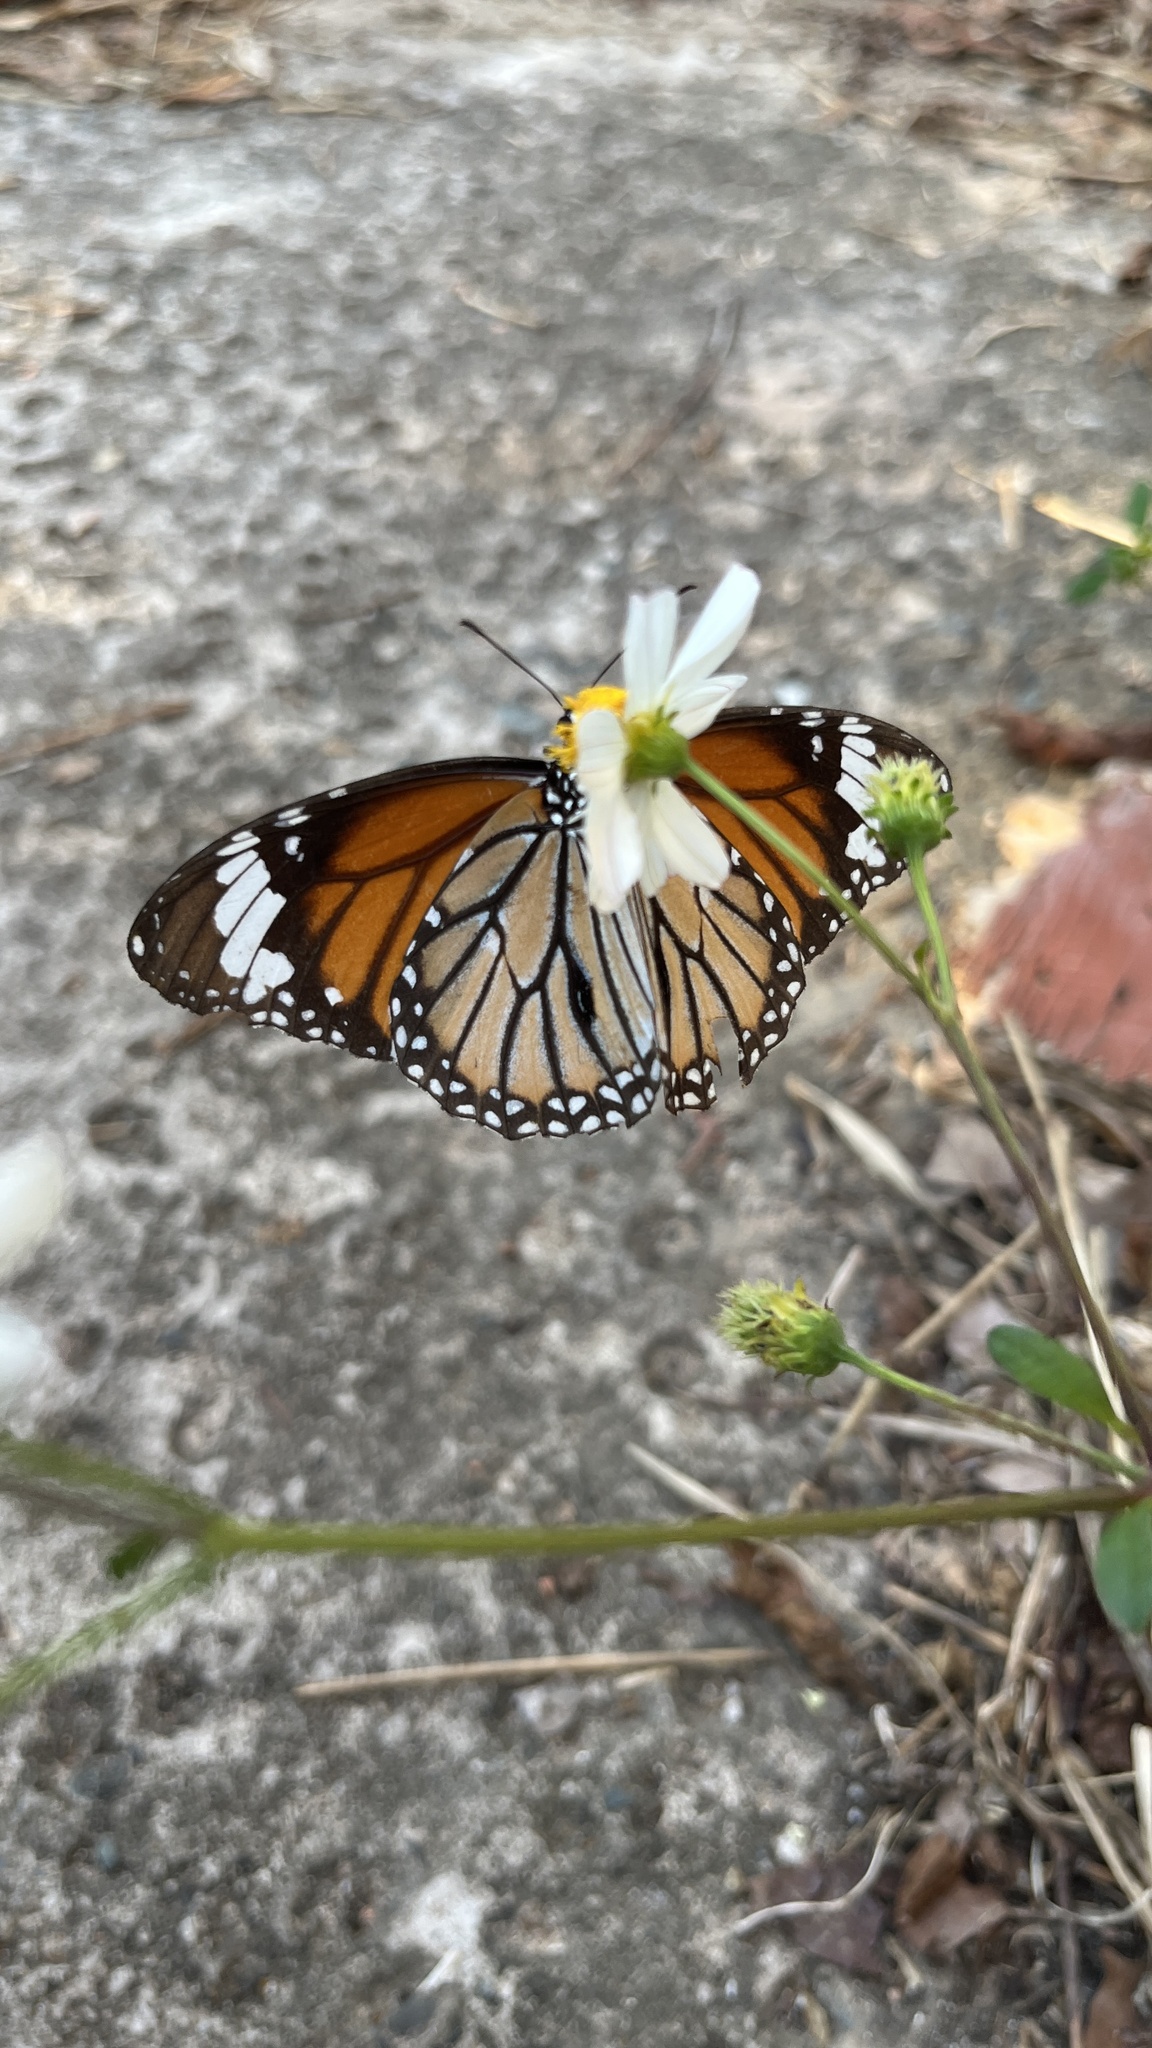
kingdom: Animalia
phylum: Arthropoda
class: Insecta
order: Lepidoptera
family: Nymphalidae
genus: Danaus
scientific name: Danaus genutia
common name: Common tiger butterfly
